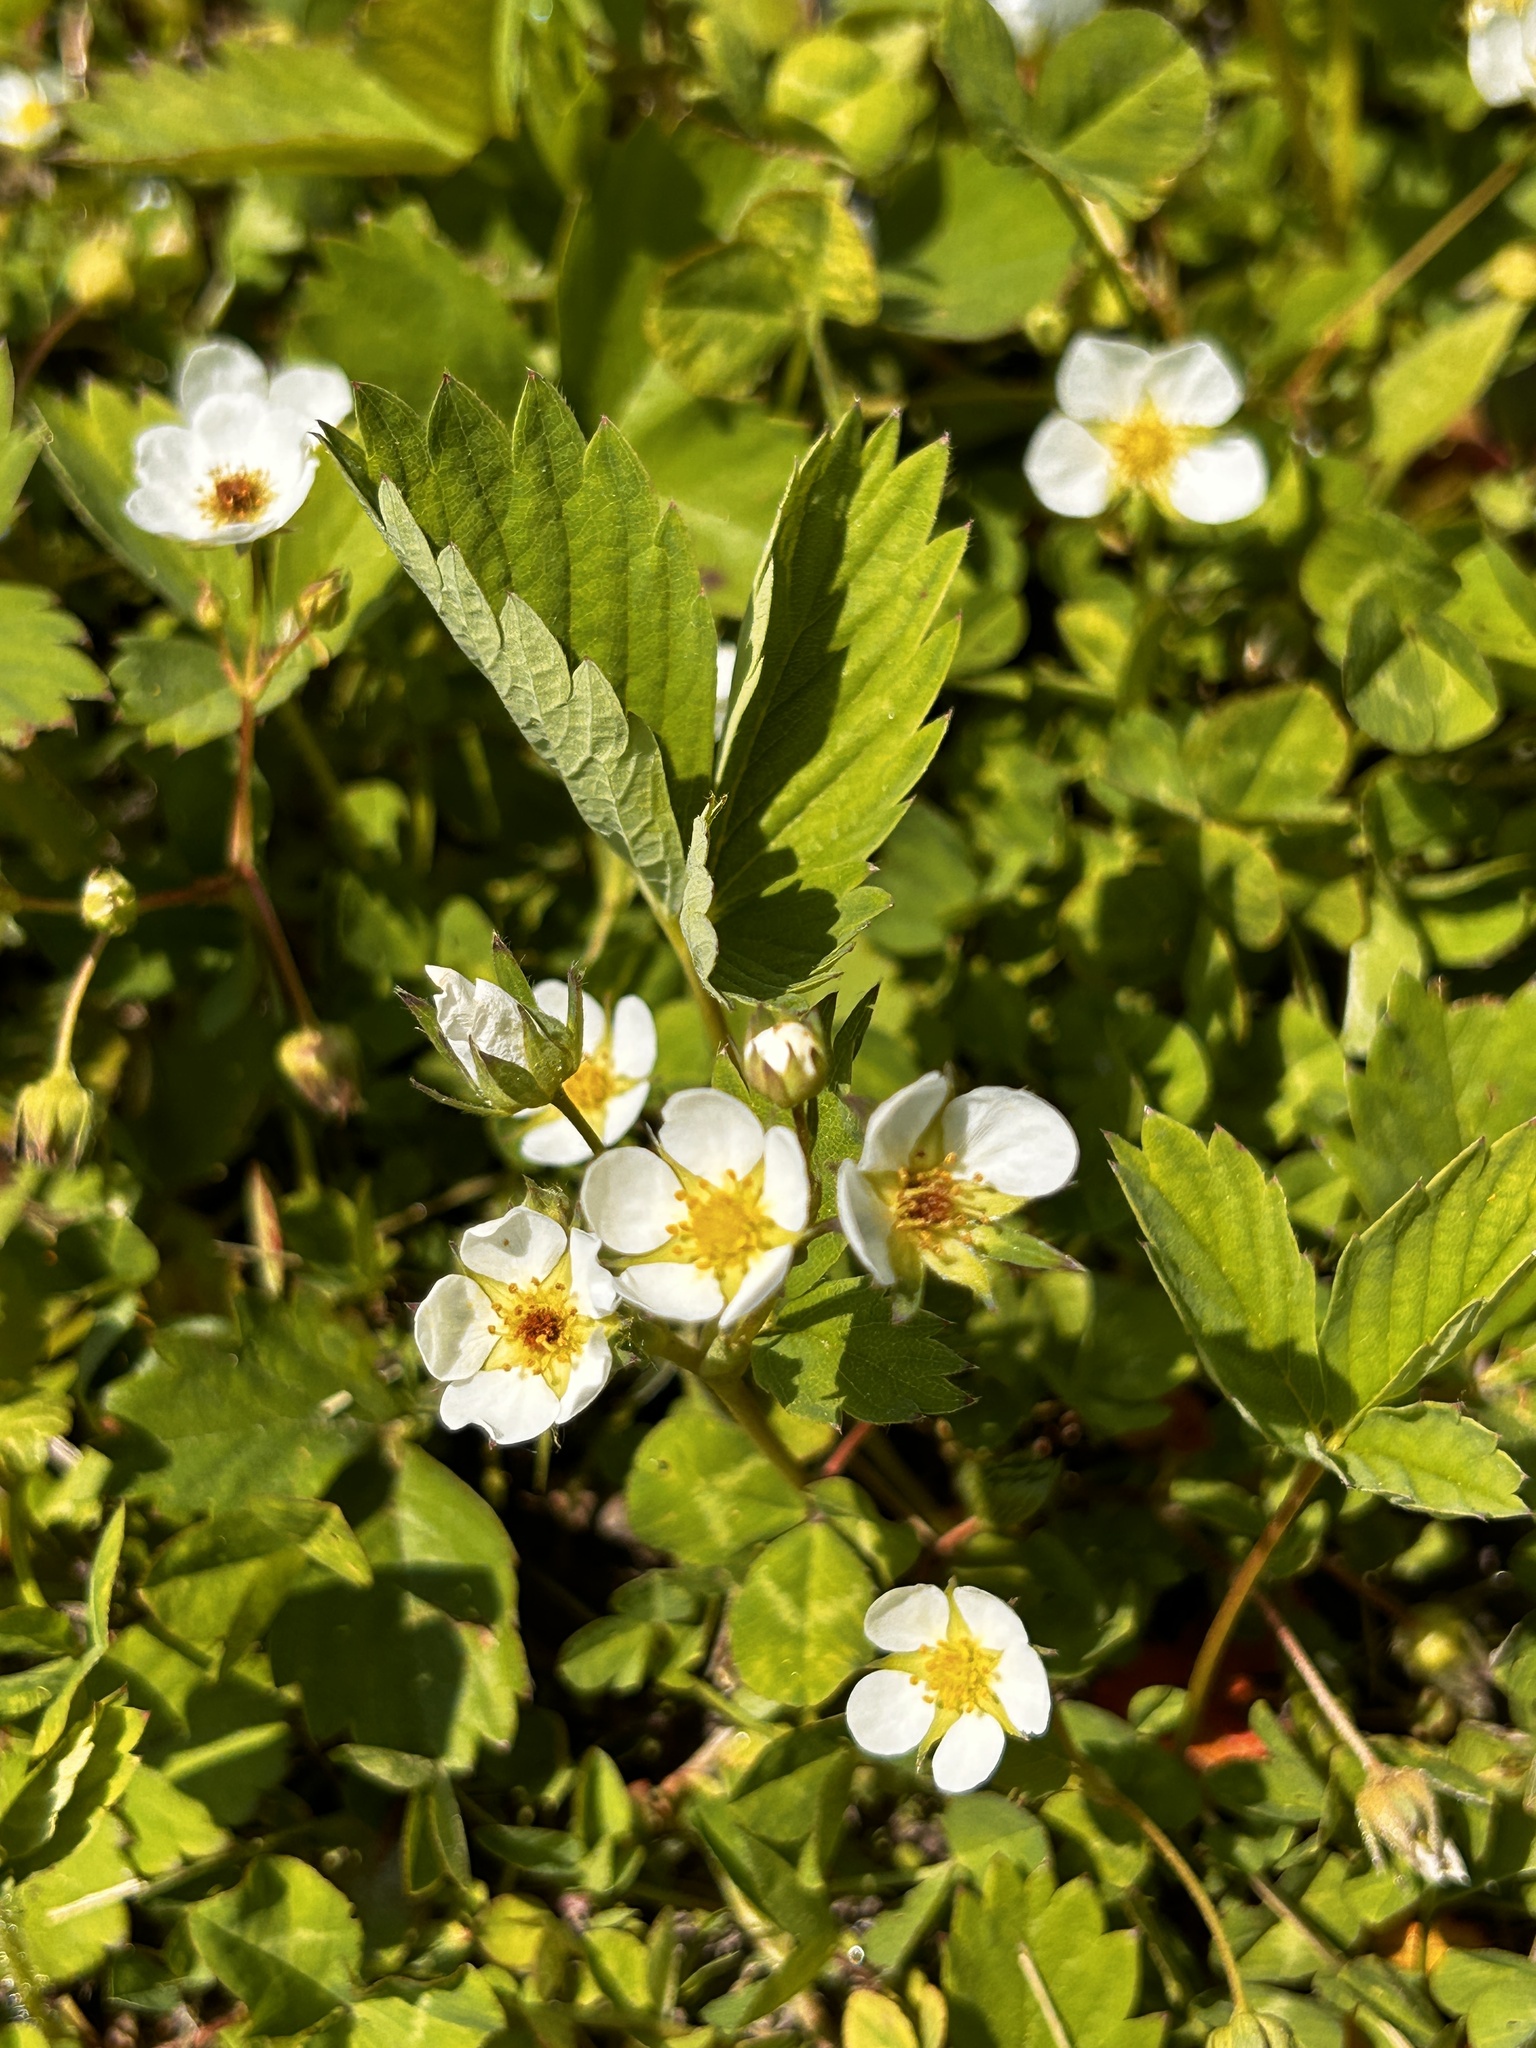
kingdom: Plantae
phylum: Tracheophyta
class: Magnoliopsida
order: Rosales
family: Rosaceae
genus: Fragaria
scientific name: Fragaria virginiana
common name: Thickleaved wild strawberry
